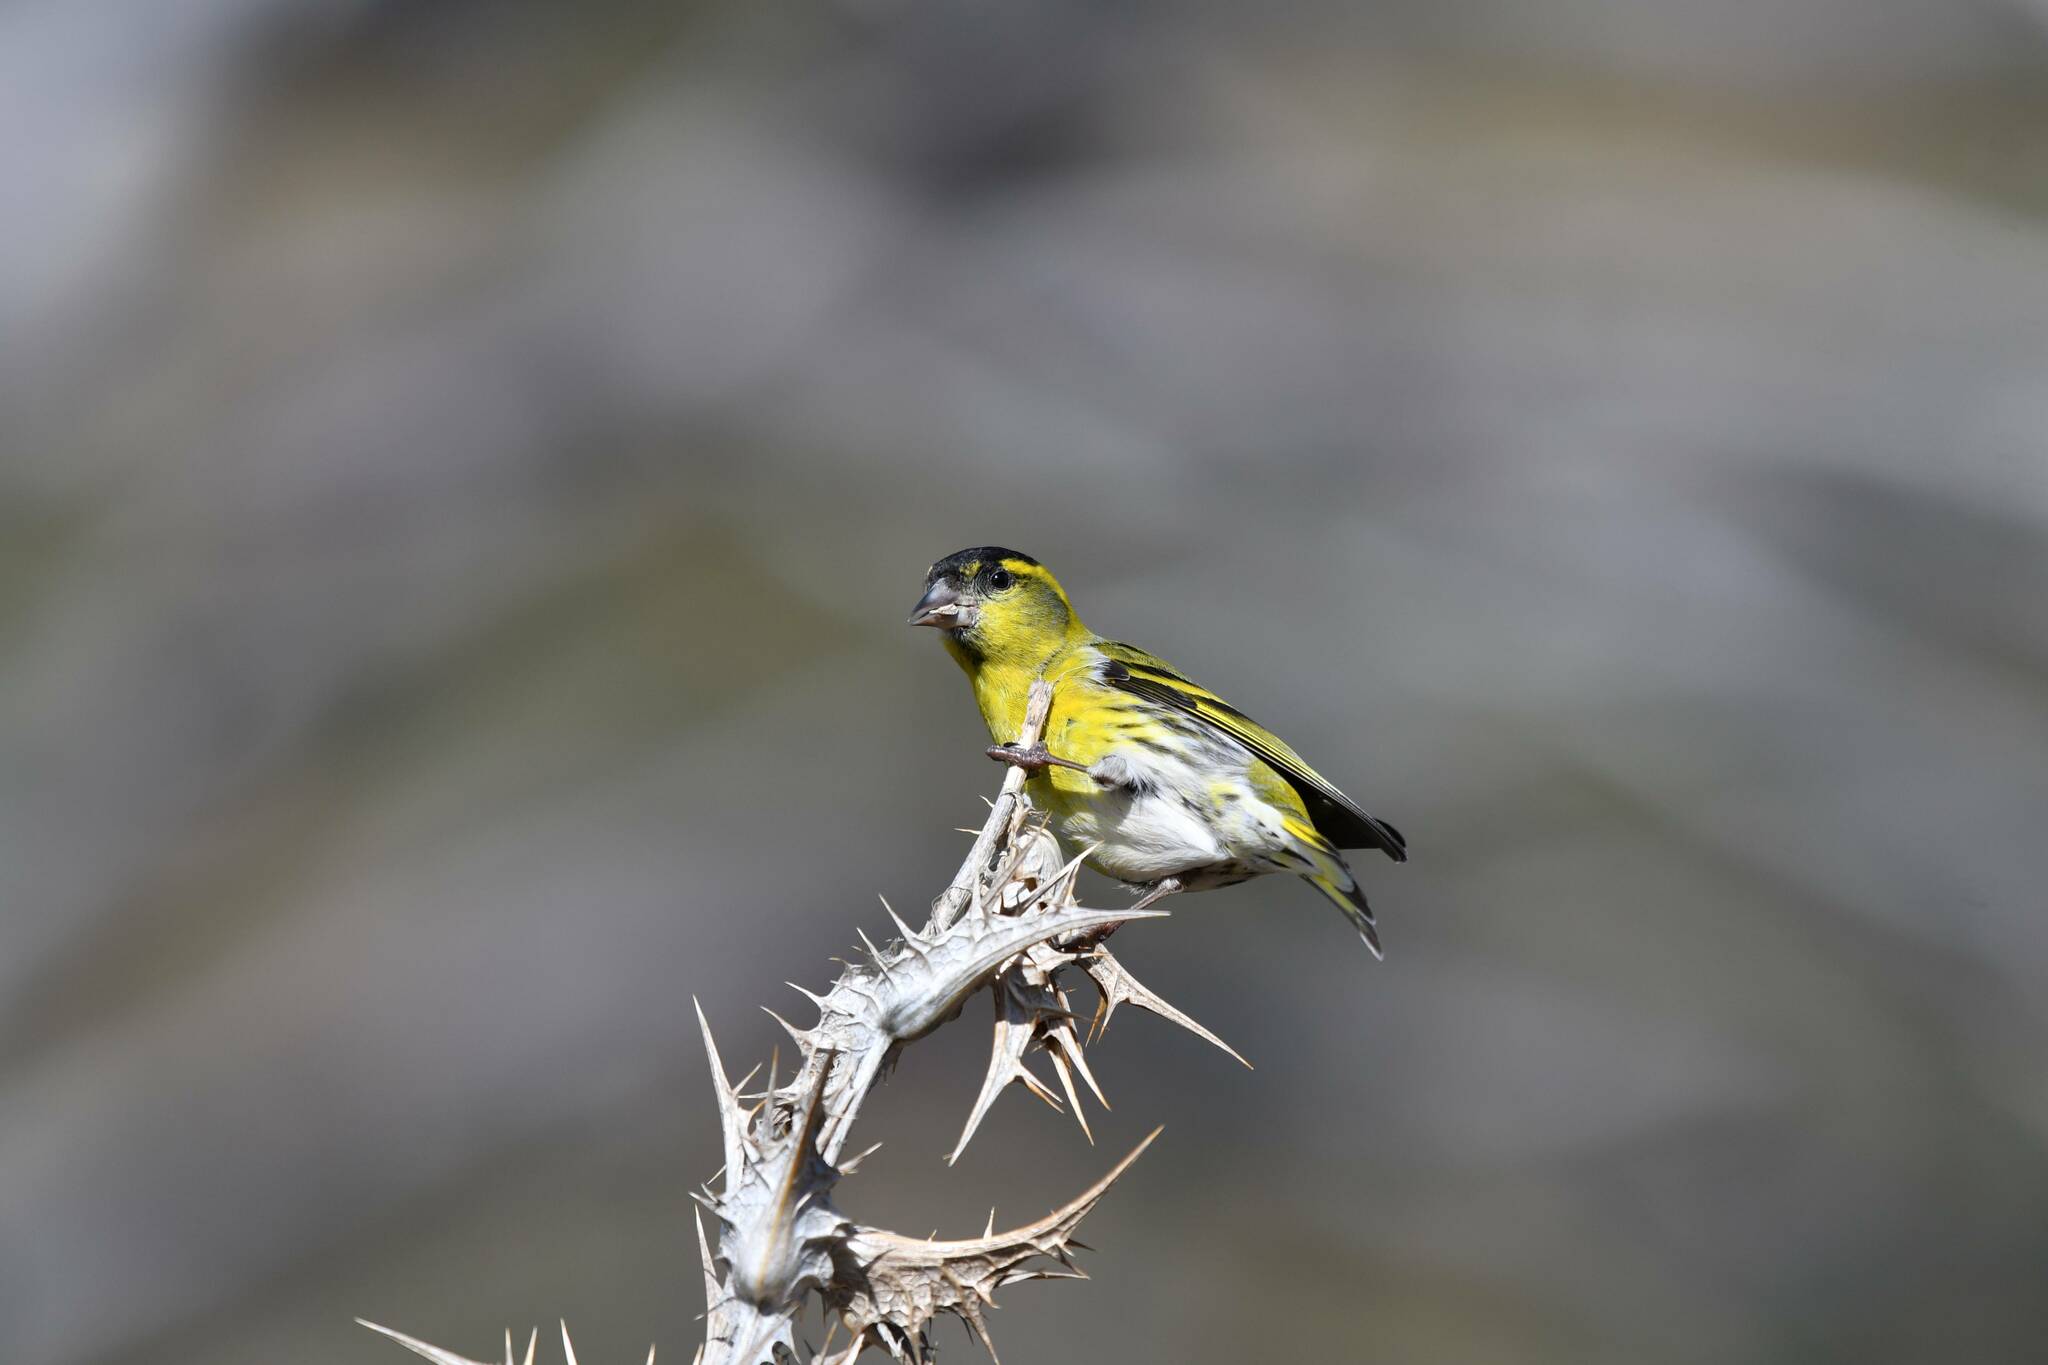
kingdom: Animalia
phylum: Chordata
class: Aves
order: Passeriformes
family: Fringillidae
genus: Spinus
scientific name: Spinus spinus
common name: Eurasian siskin
